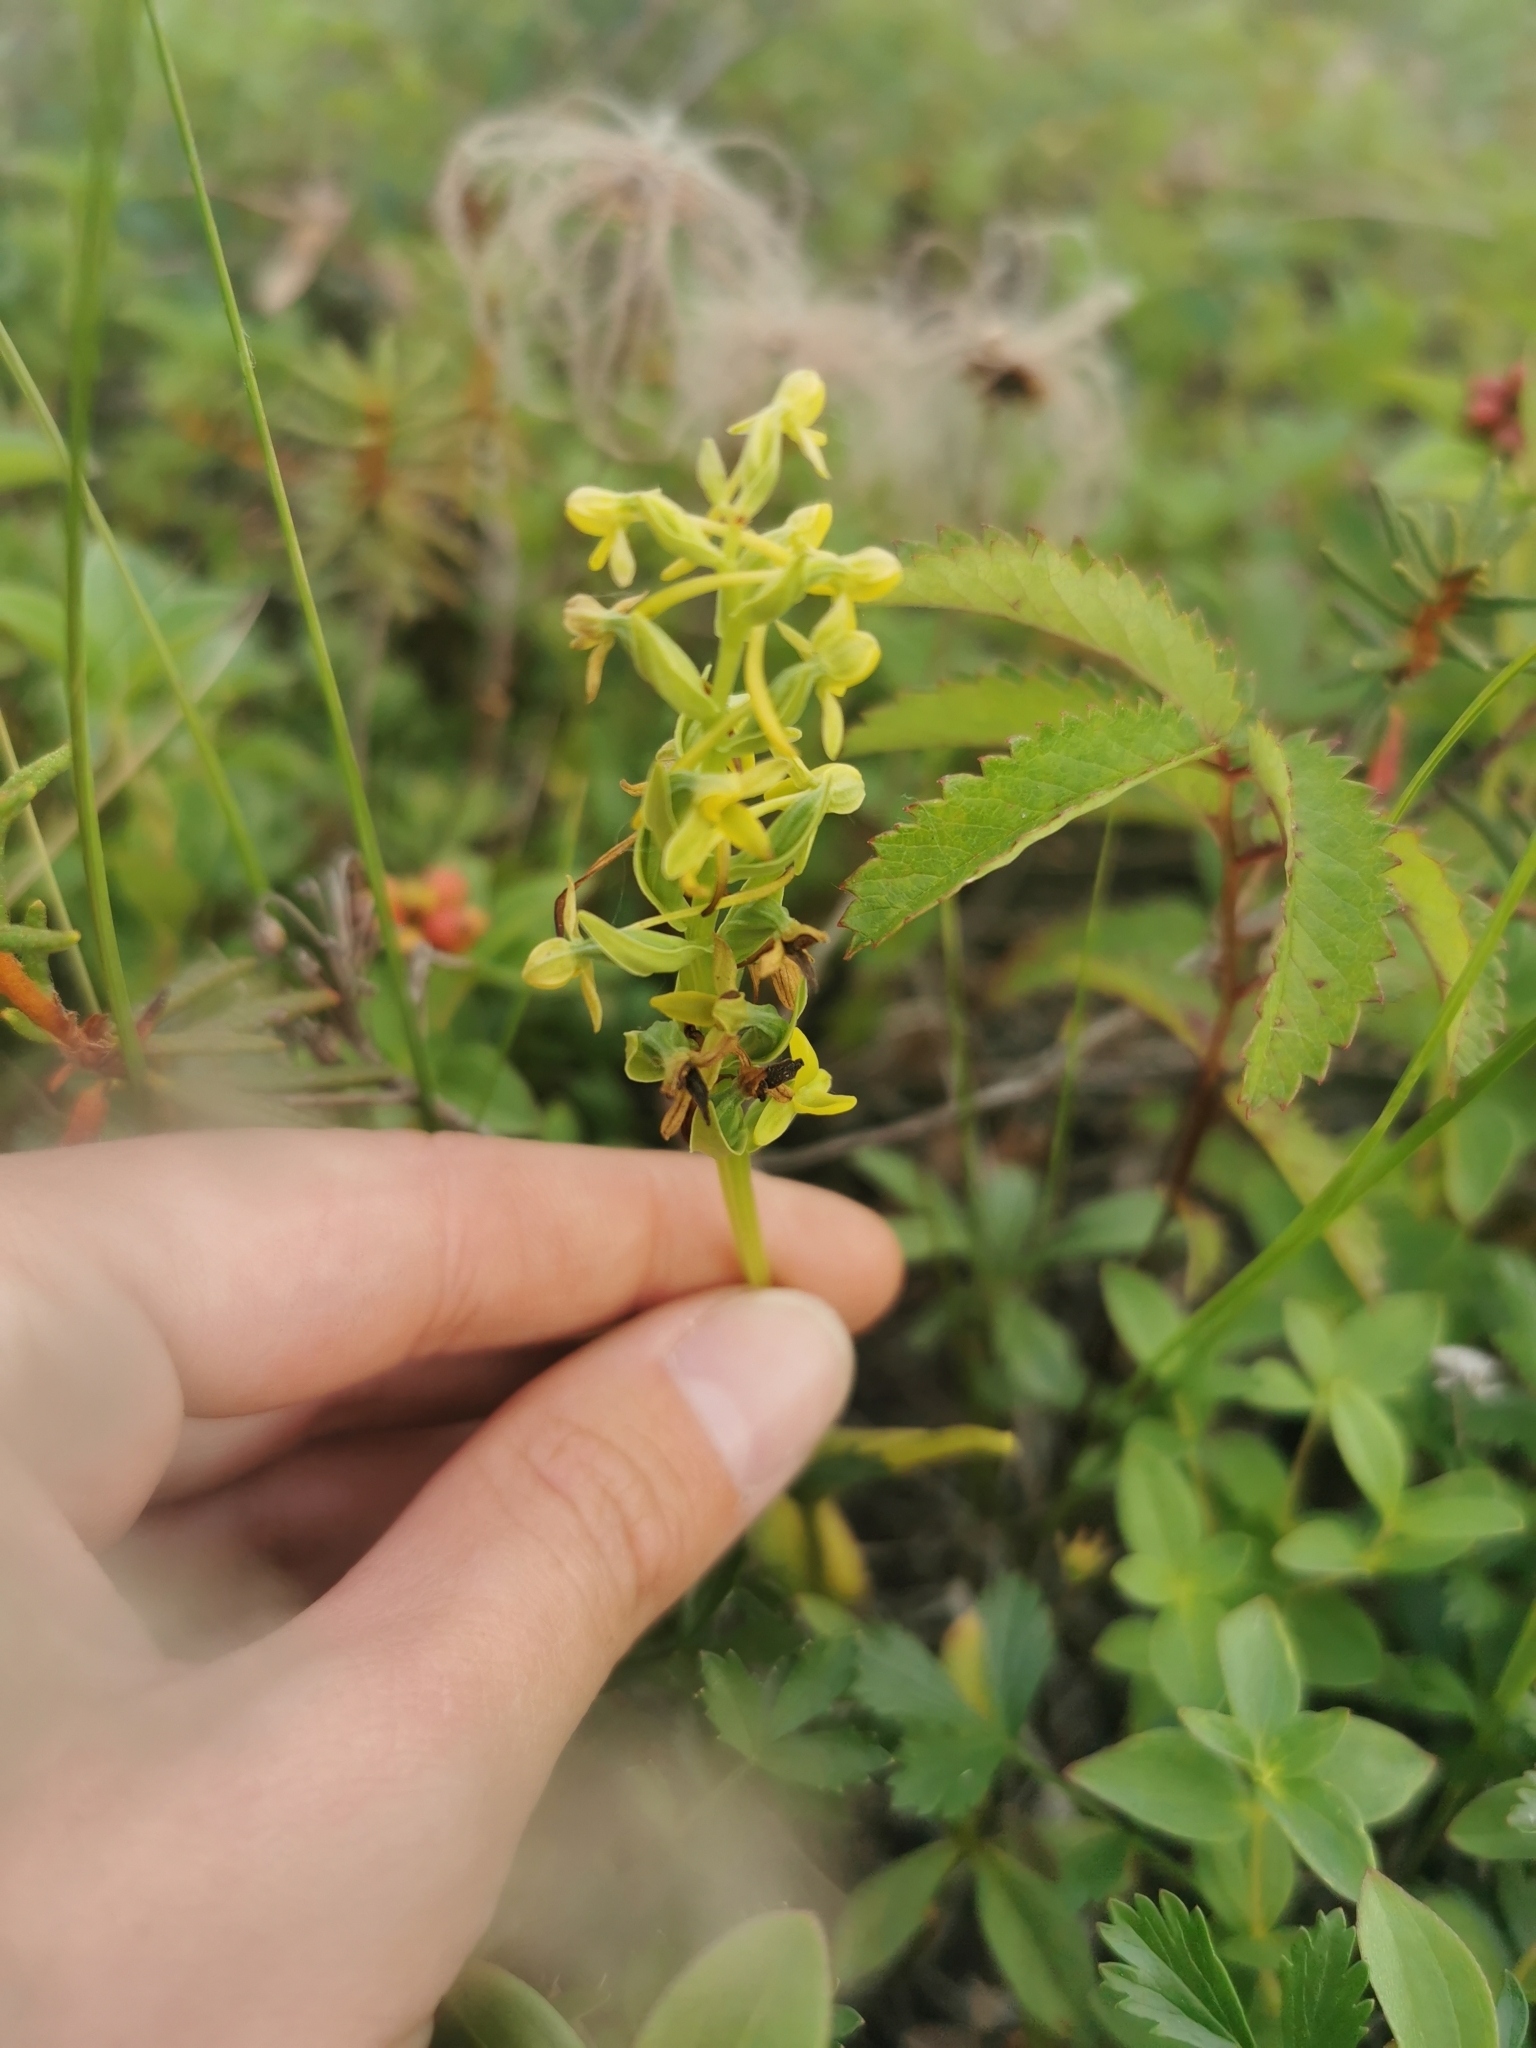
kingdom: Plantae
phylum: Tracheophyta
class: Liliopsida
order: Asparagales
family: Orchidaceae
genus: Platanthera
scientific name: Platanthera tipuloides
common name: Aleutian bog orchid
